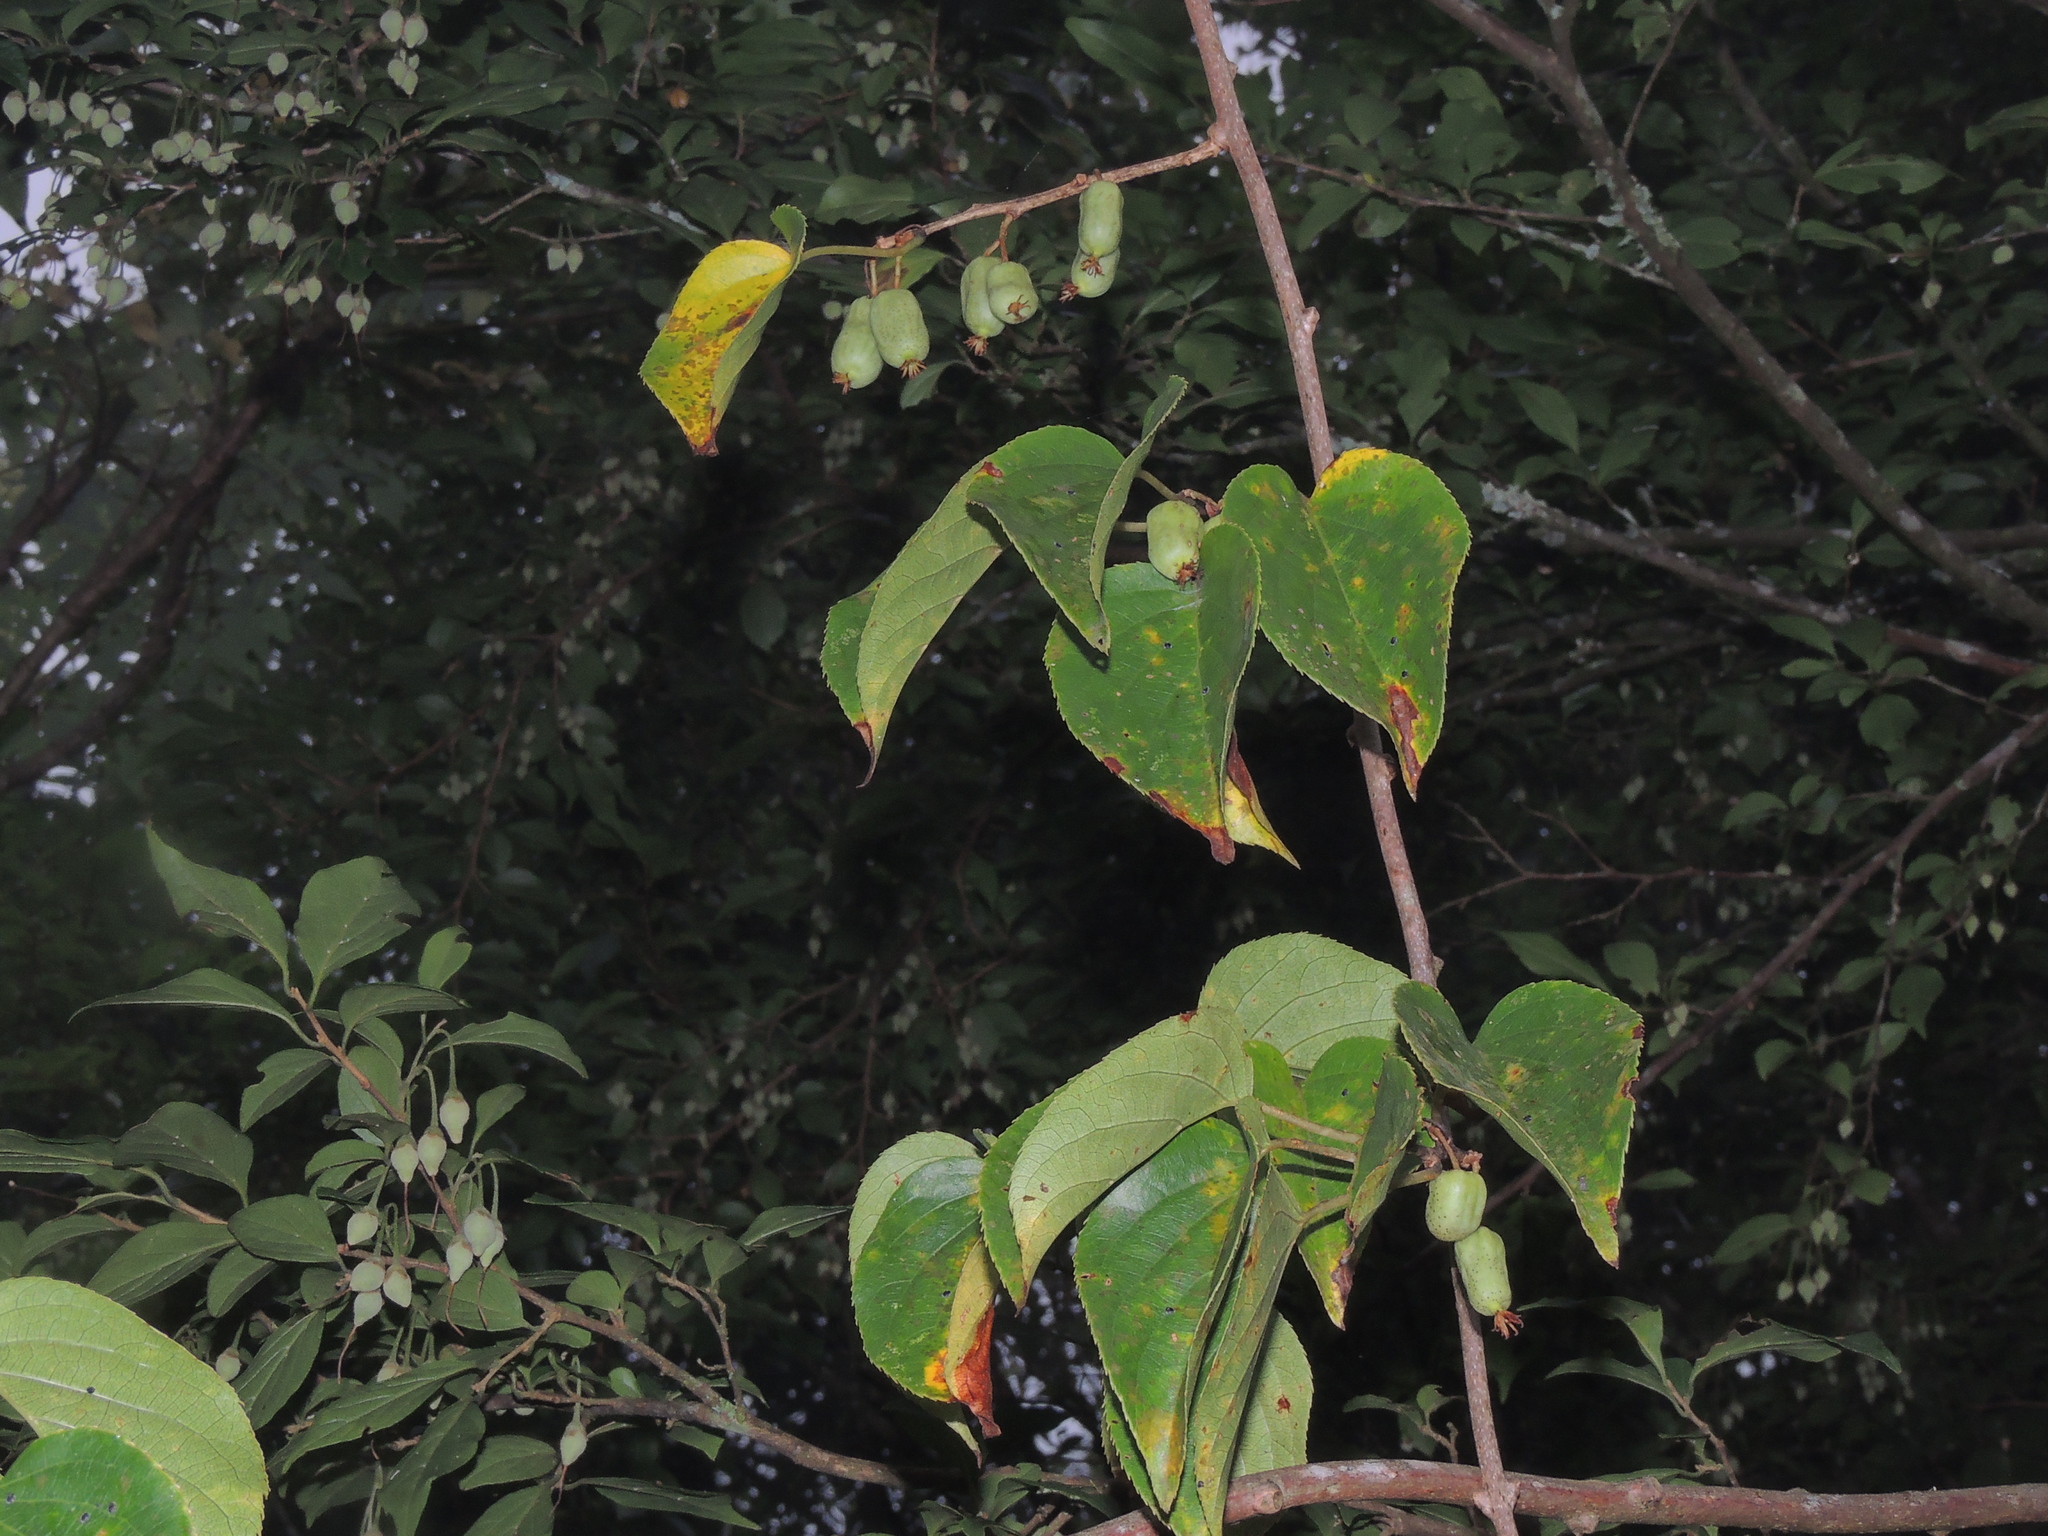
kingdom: Plantae
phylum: Tracheophyta
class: Magnoliopsida
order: Ericales
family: Actinidiaceae
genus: Actinidia
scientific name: Actinidia arguta
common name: Tara vine
